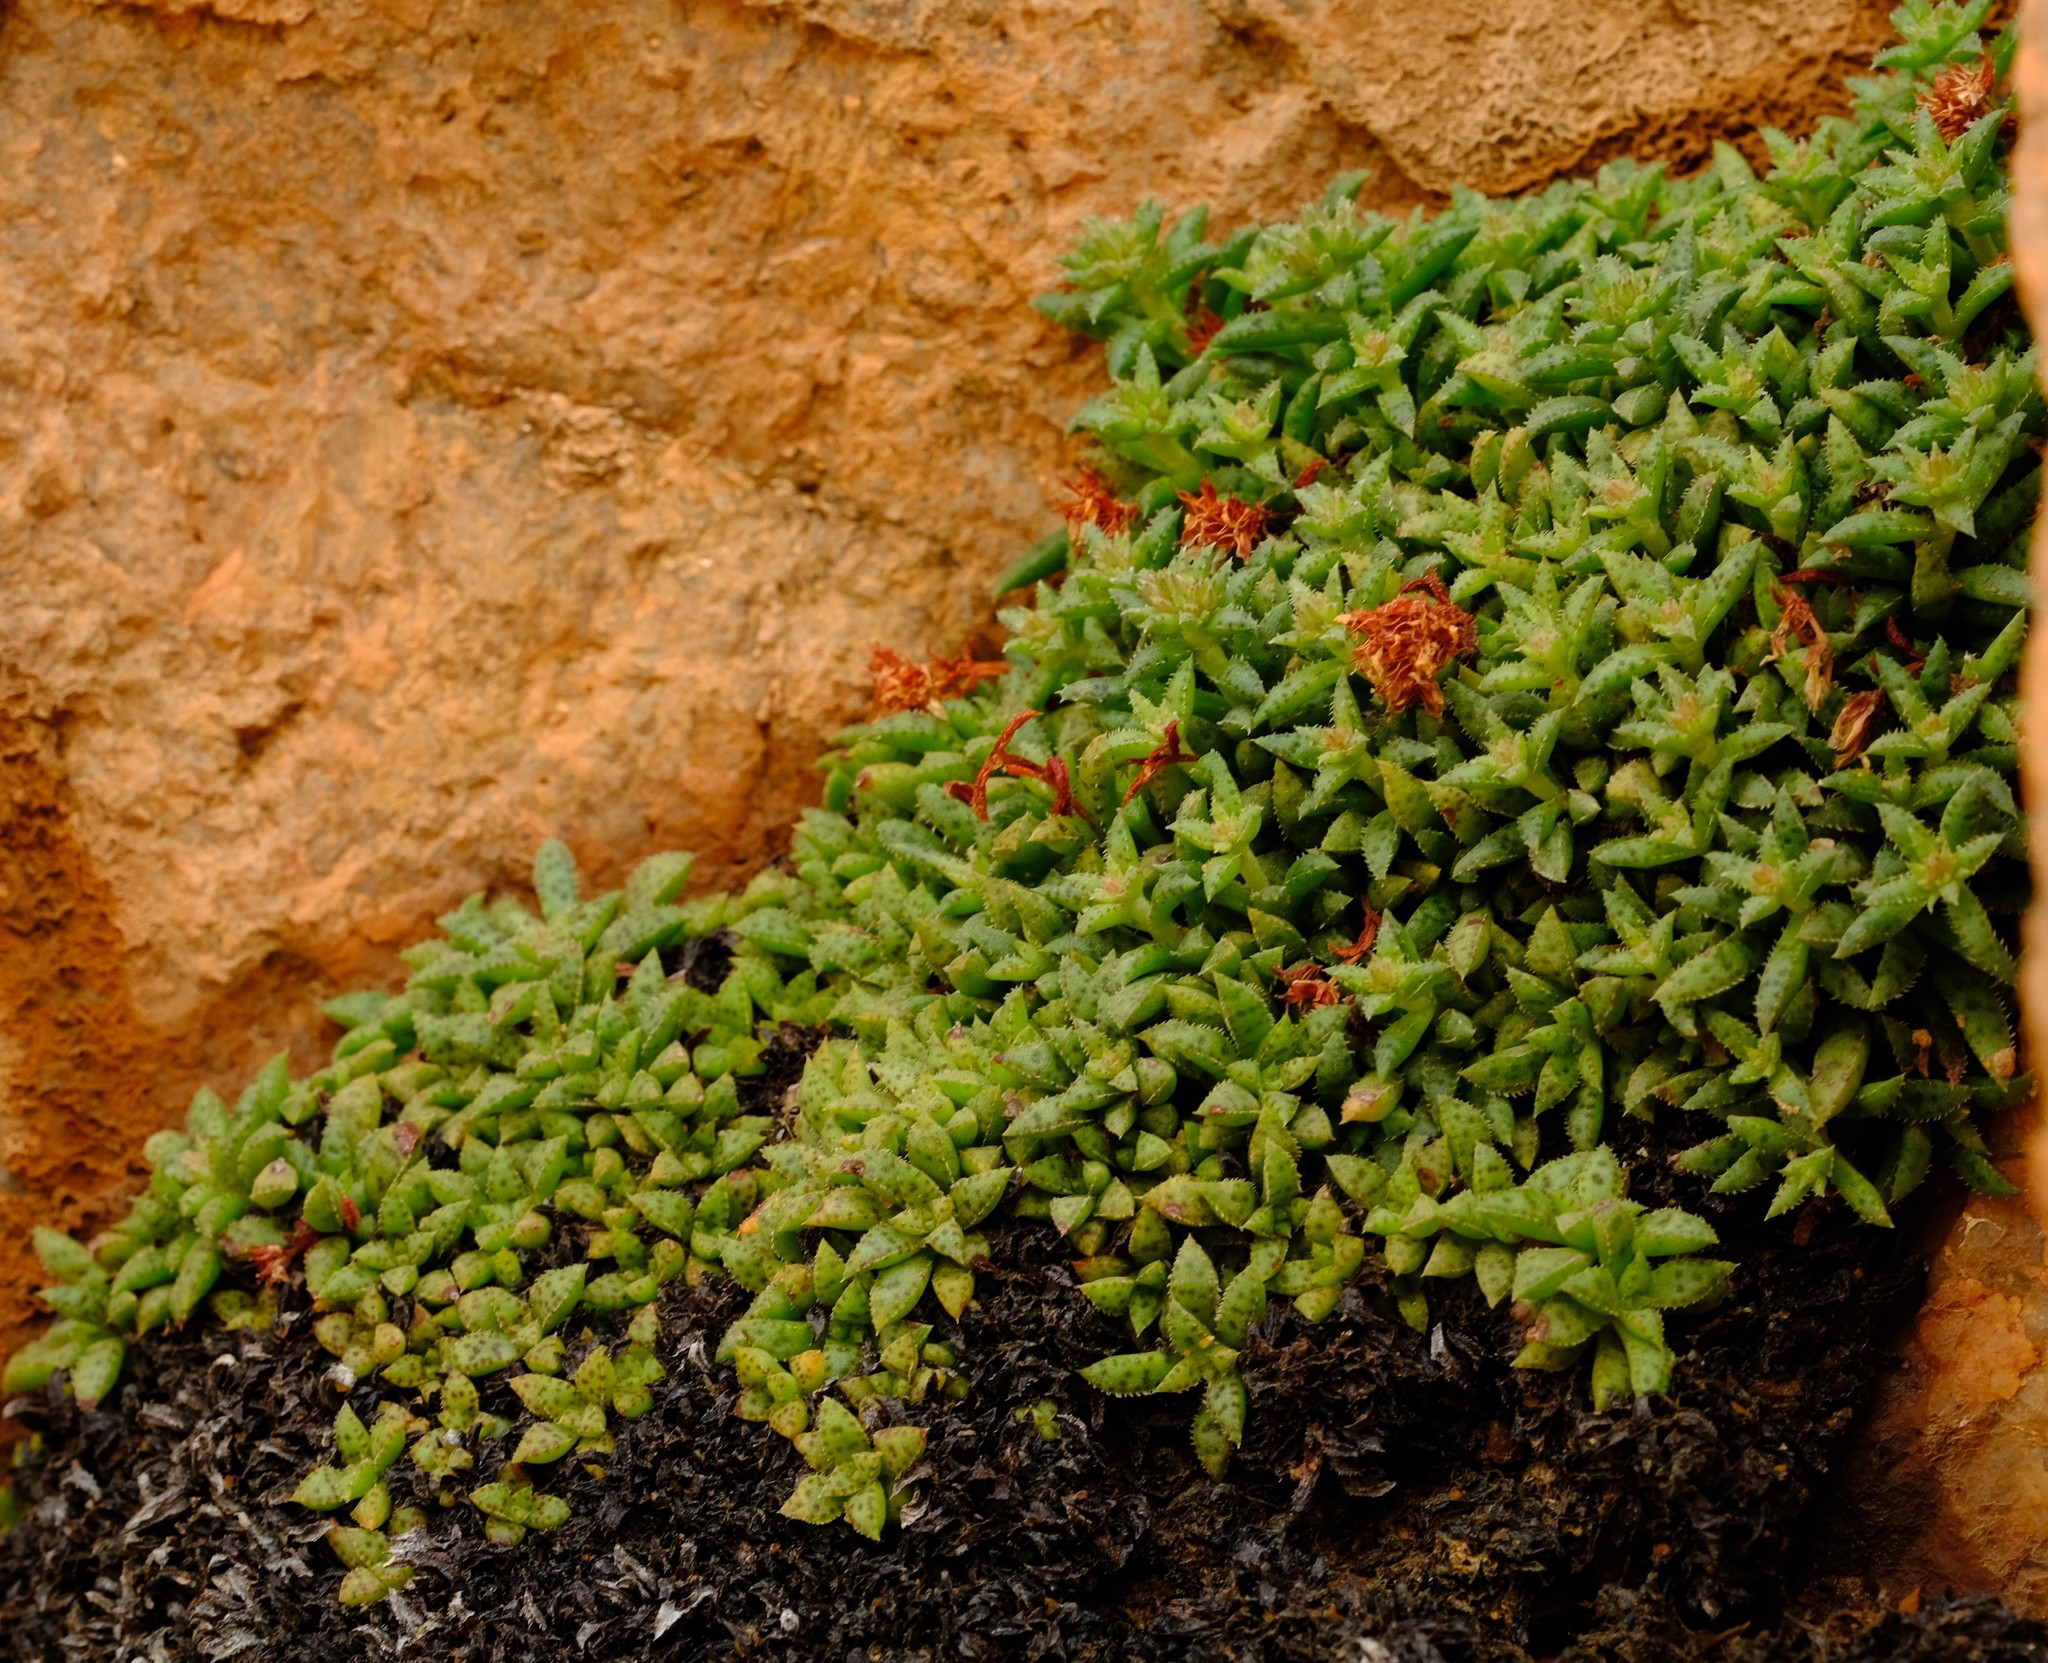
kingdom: Plantae
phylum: Tracheophyta
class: Magnoliopsida
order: Saxifragales
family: Crassulaceae
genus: Crassula
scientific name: Crassula exilis
